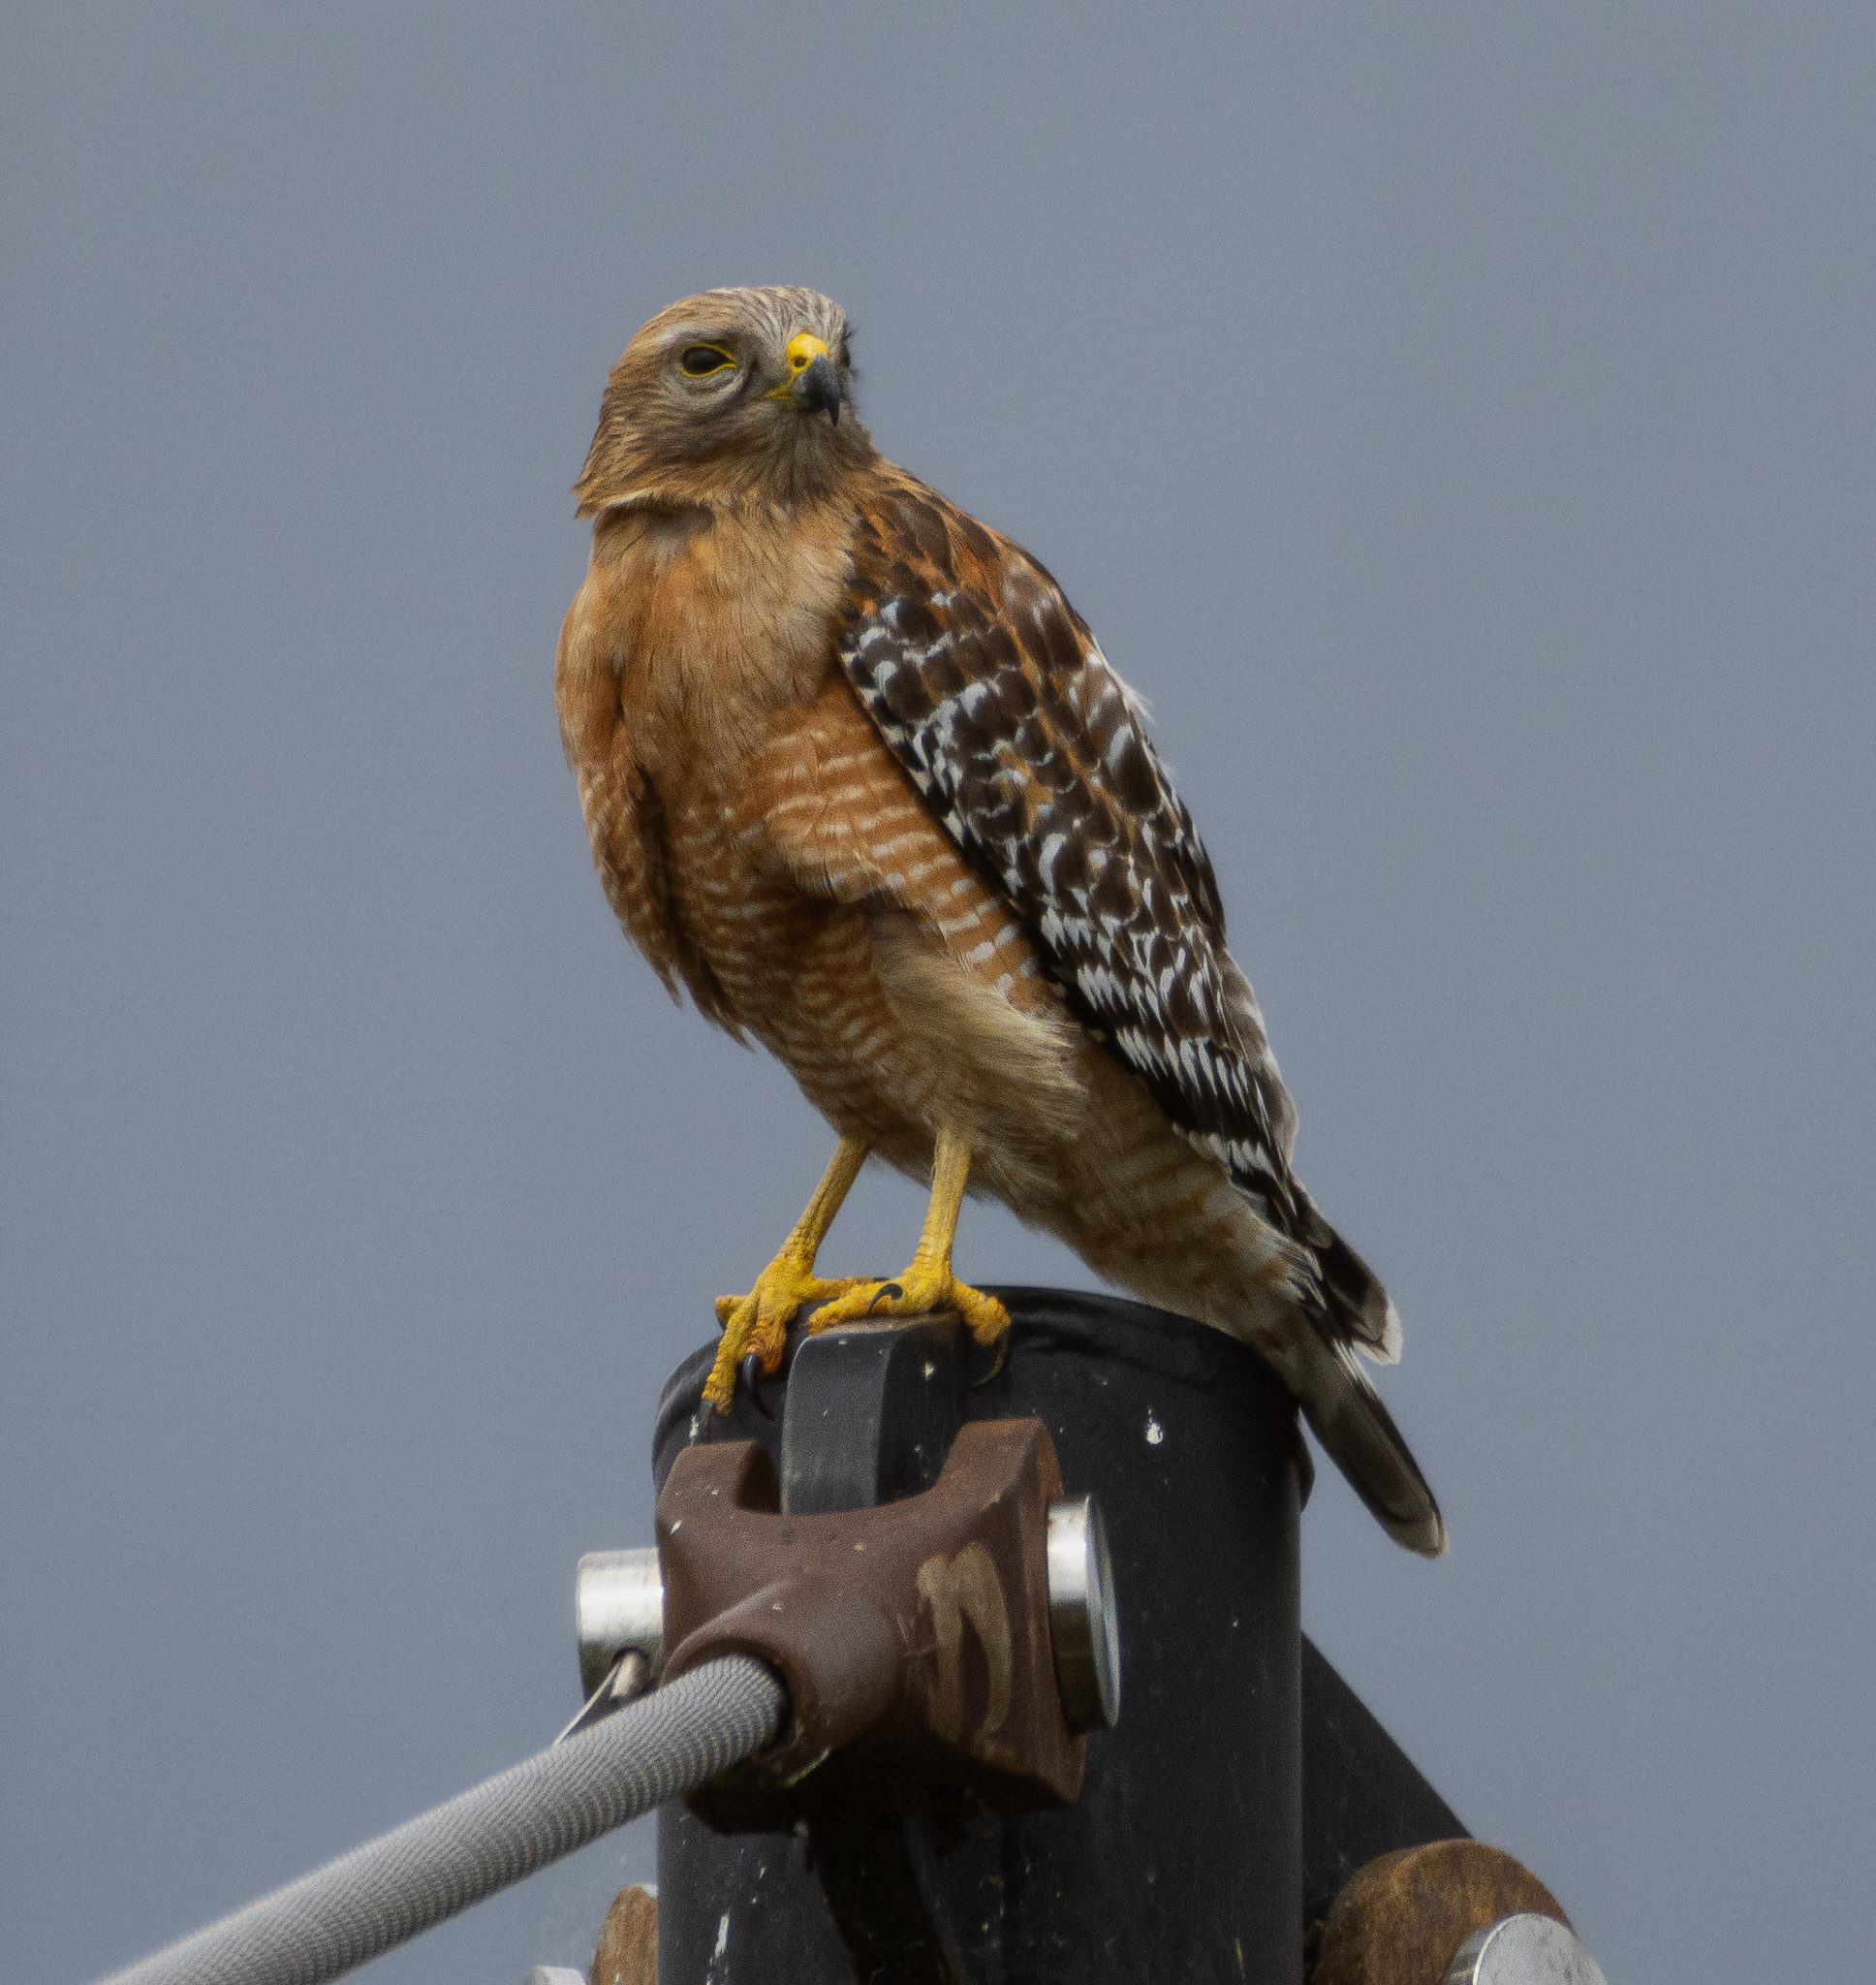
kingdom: Animalia
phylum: Chordata
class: Aves
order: Accipitriformes
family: Accipitridae
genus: Buteo
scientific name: Buteo lineatus
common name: Red-shouldered hawk
